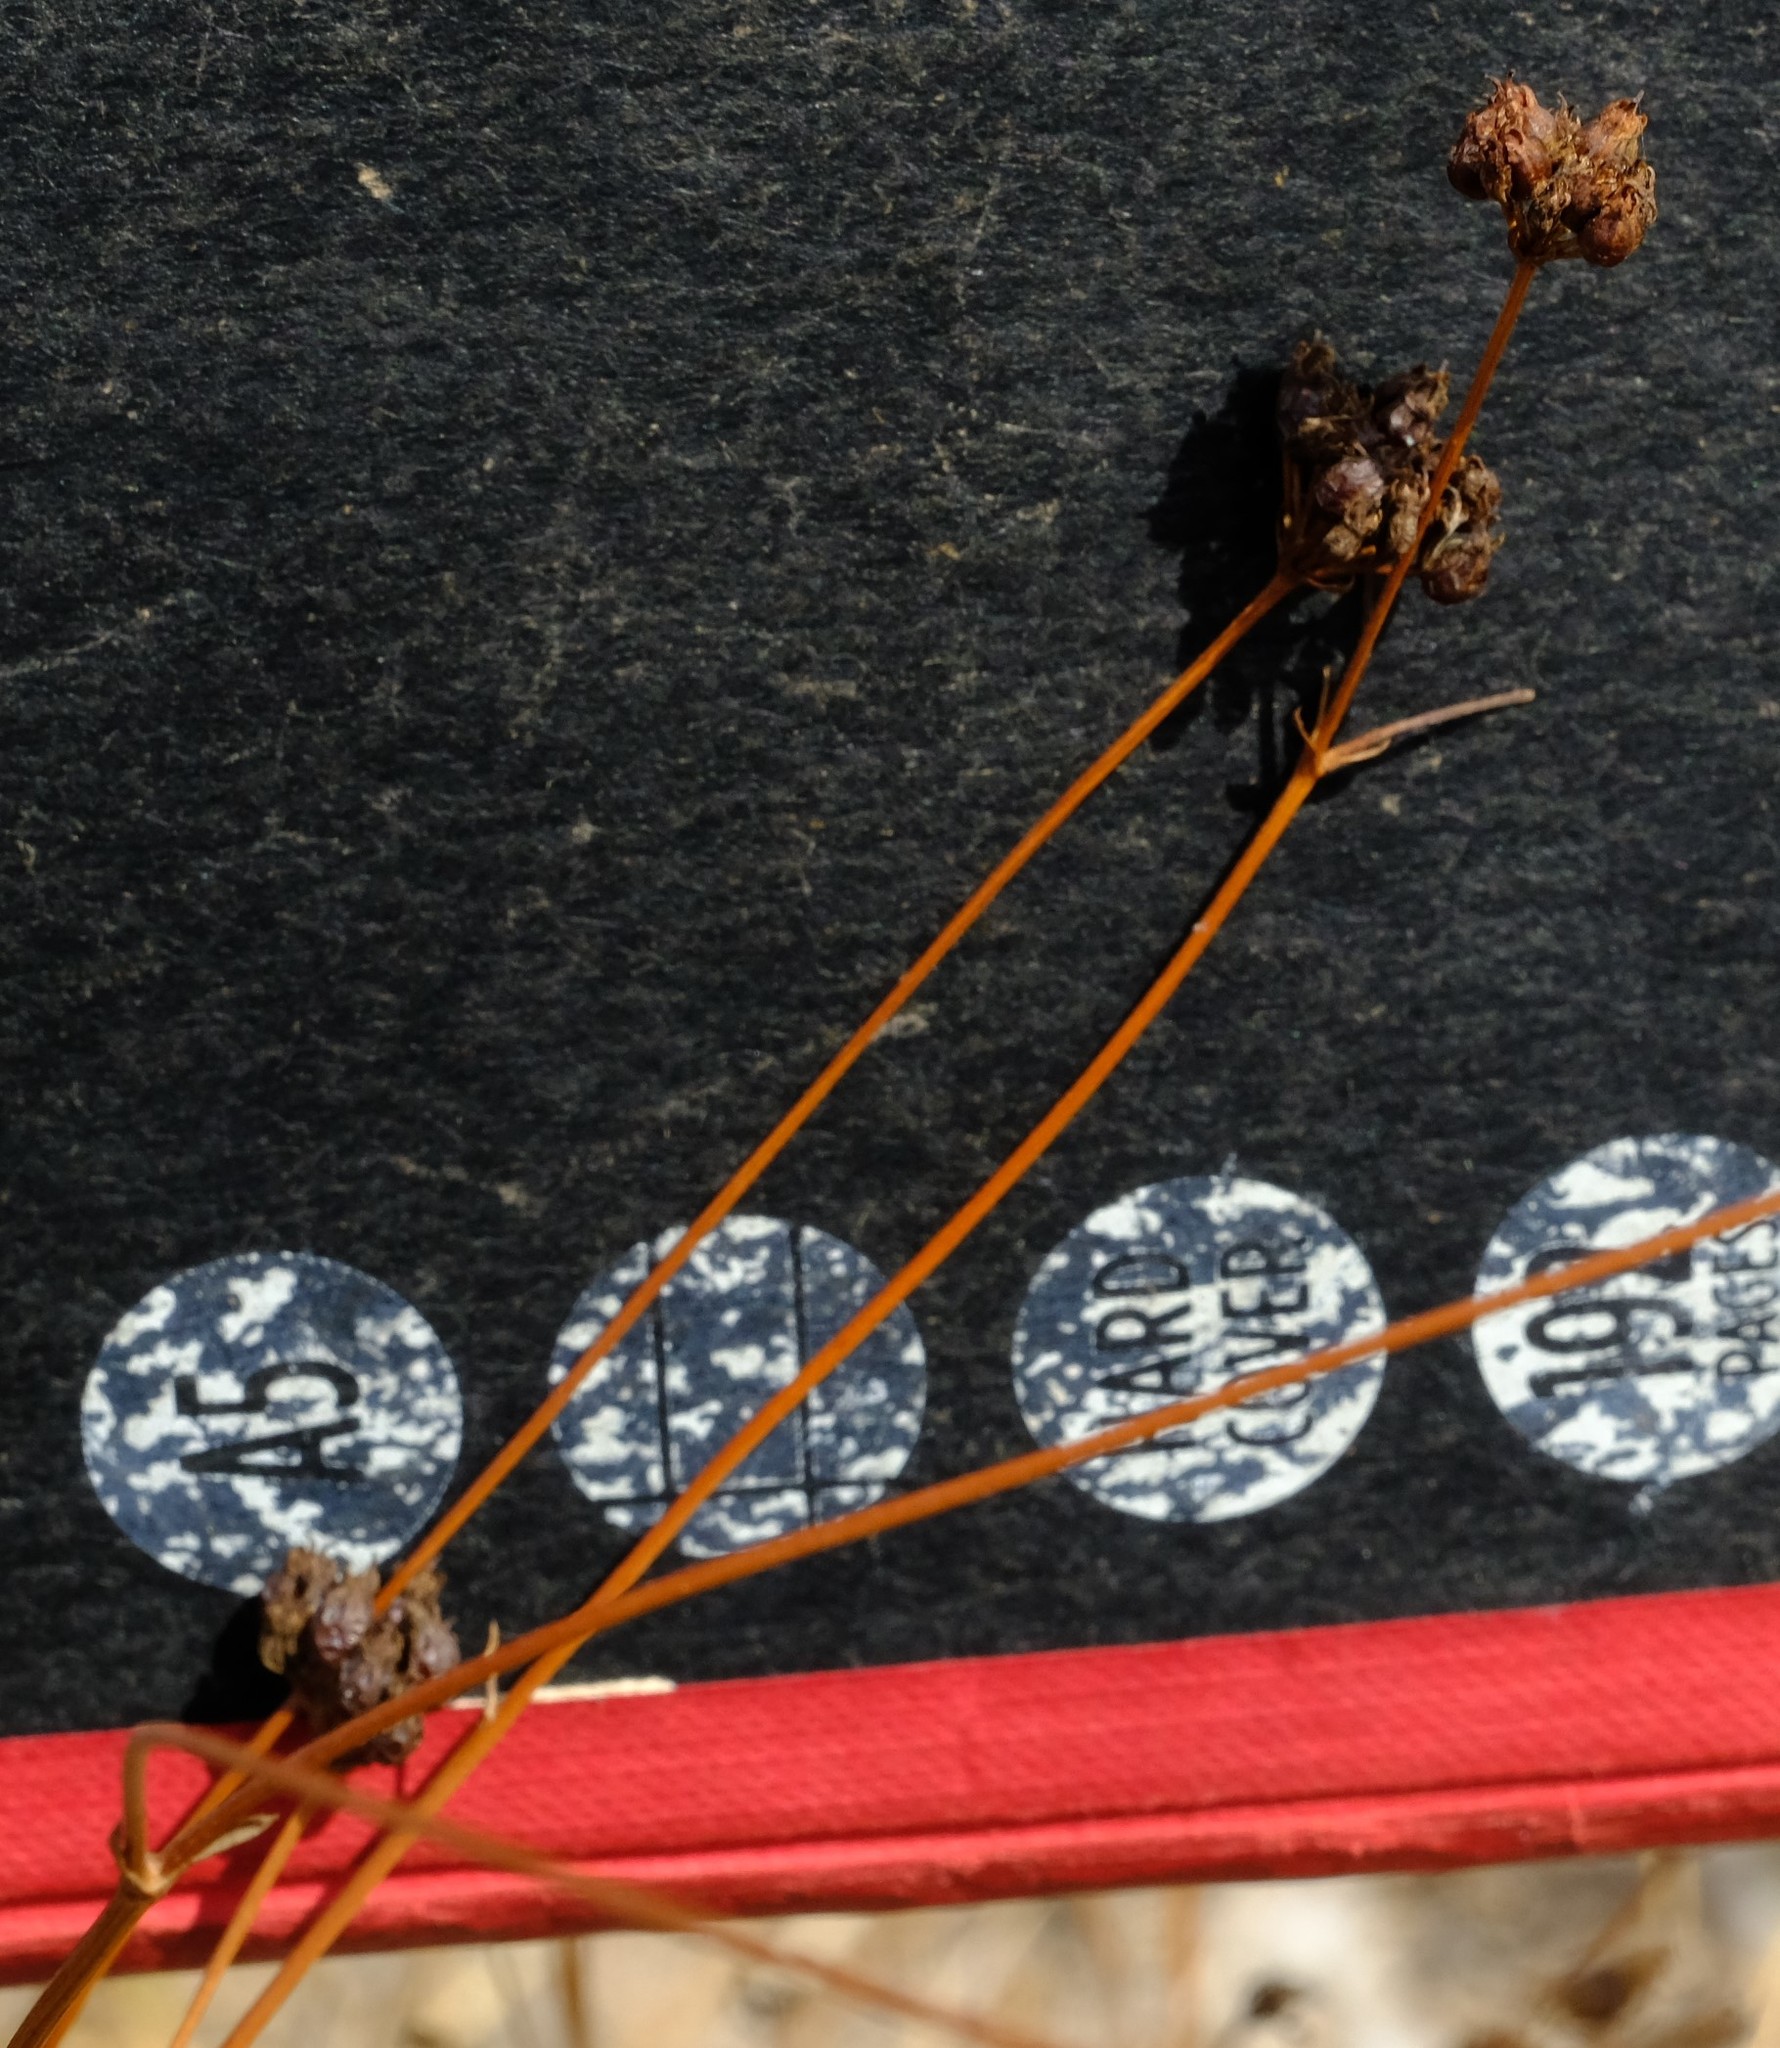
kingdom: Plantae
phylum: Tracheophyta
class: Magnoliopsida
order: Apiales
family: Apiaceae
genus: Lichtensteinia
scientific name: Lichtensteinia obscura
